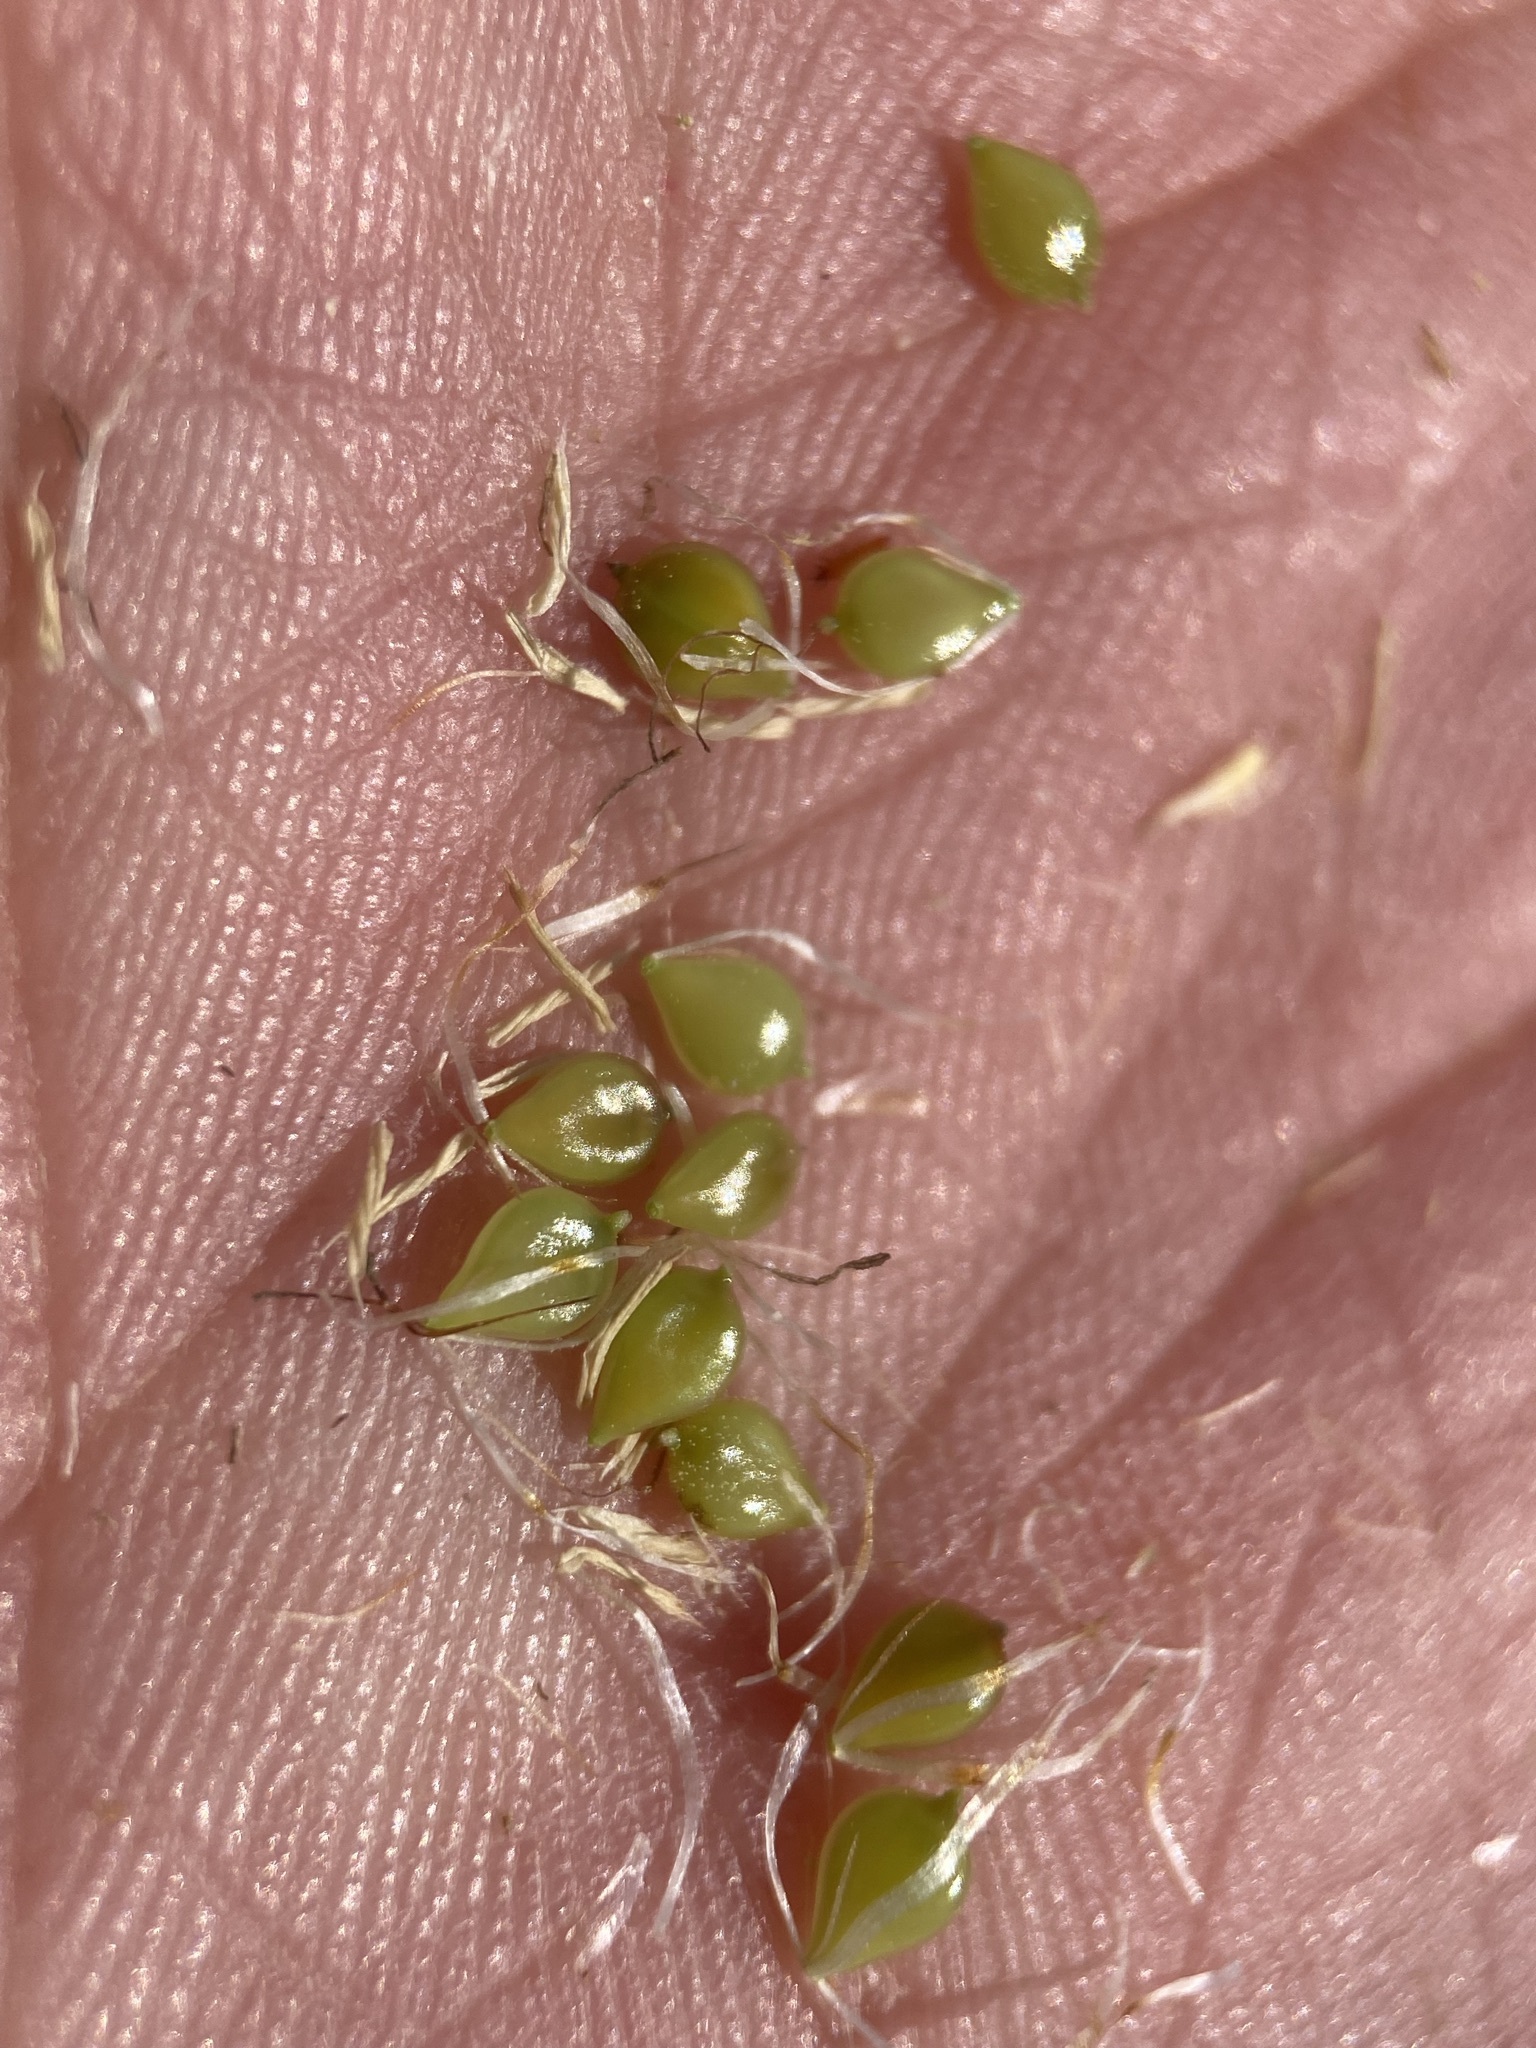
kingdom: Plantae
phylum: Tracheophyta
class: Liliopsida
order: Poales
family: Cyperaceae
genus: Bolboschoenus
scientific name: Bolboschoenus maritimus
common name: Sea club-rush
